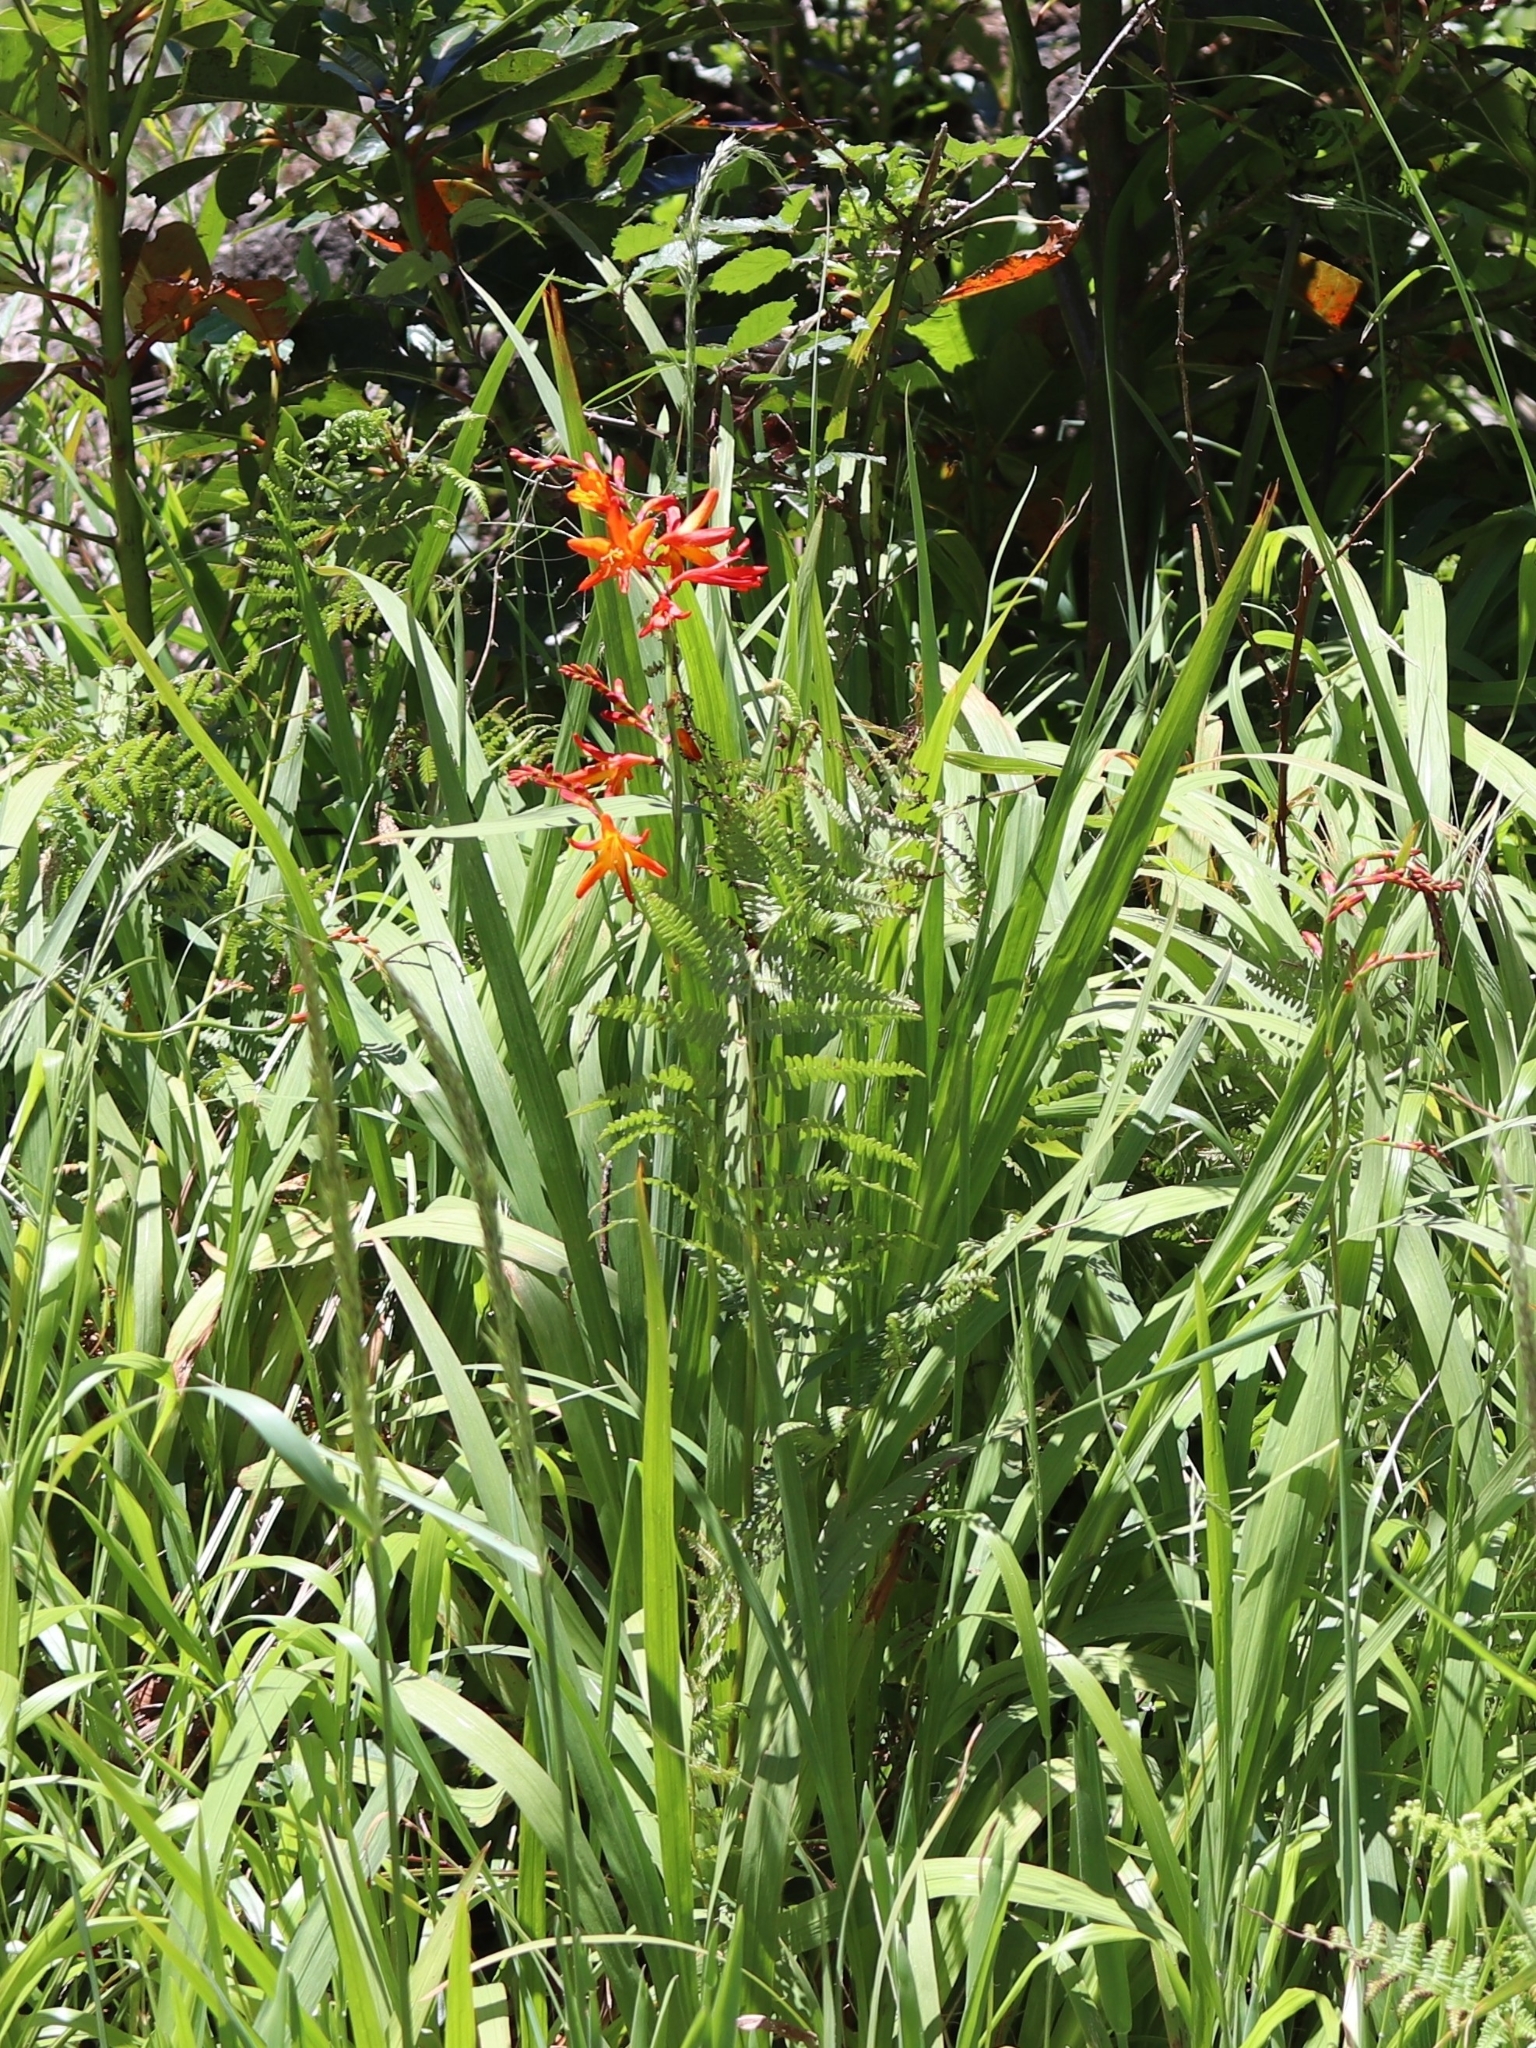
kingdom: Plantae
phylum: Tracheophyta
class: Liliopsida
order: Asparagales
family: Iridaceae
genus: Crocosmia
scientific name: Crocosmia crocosmiiflora
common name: Montbretia
